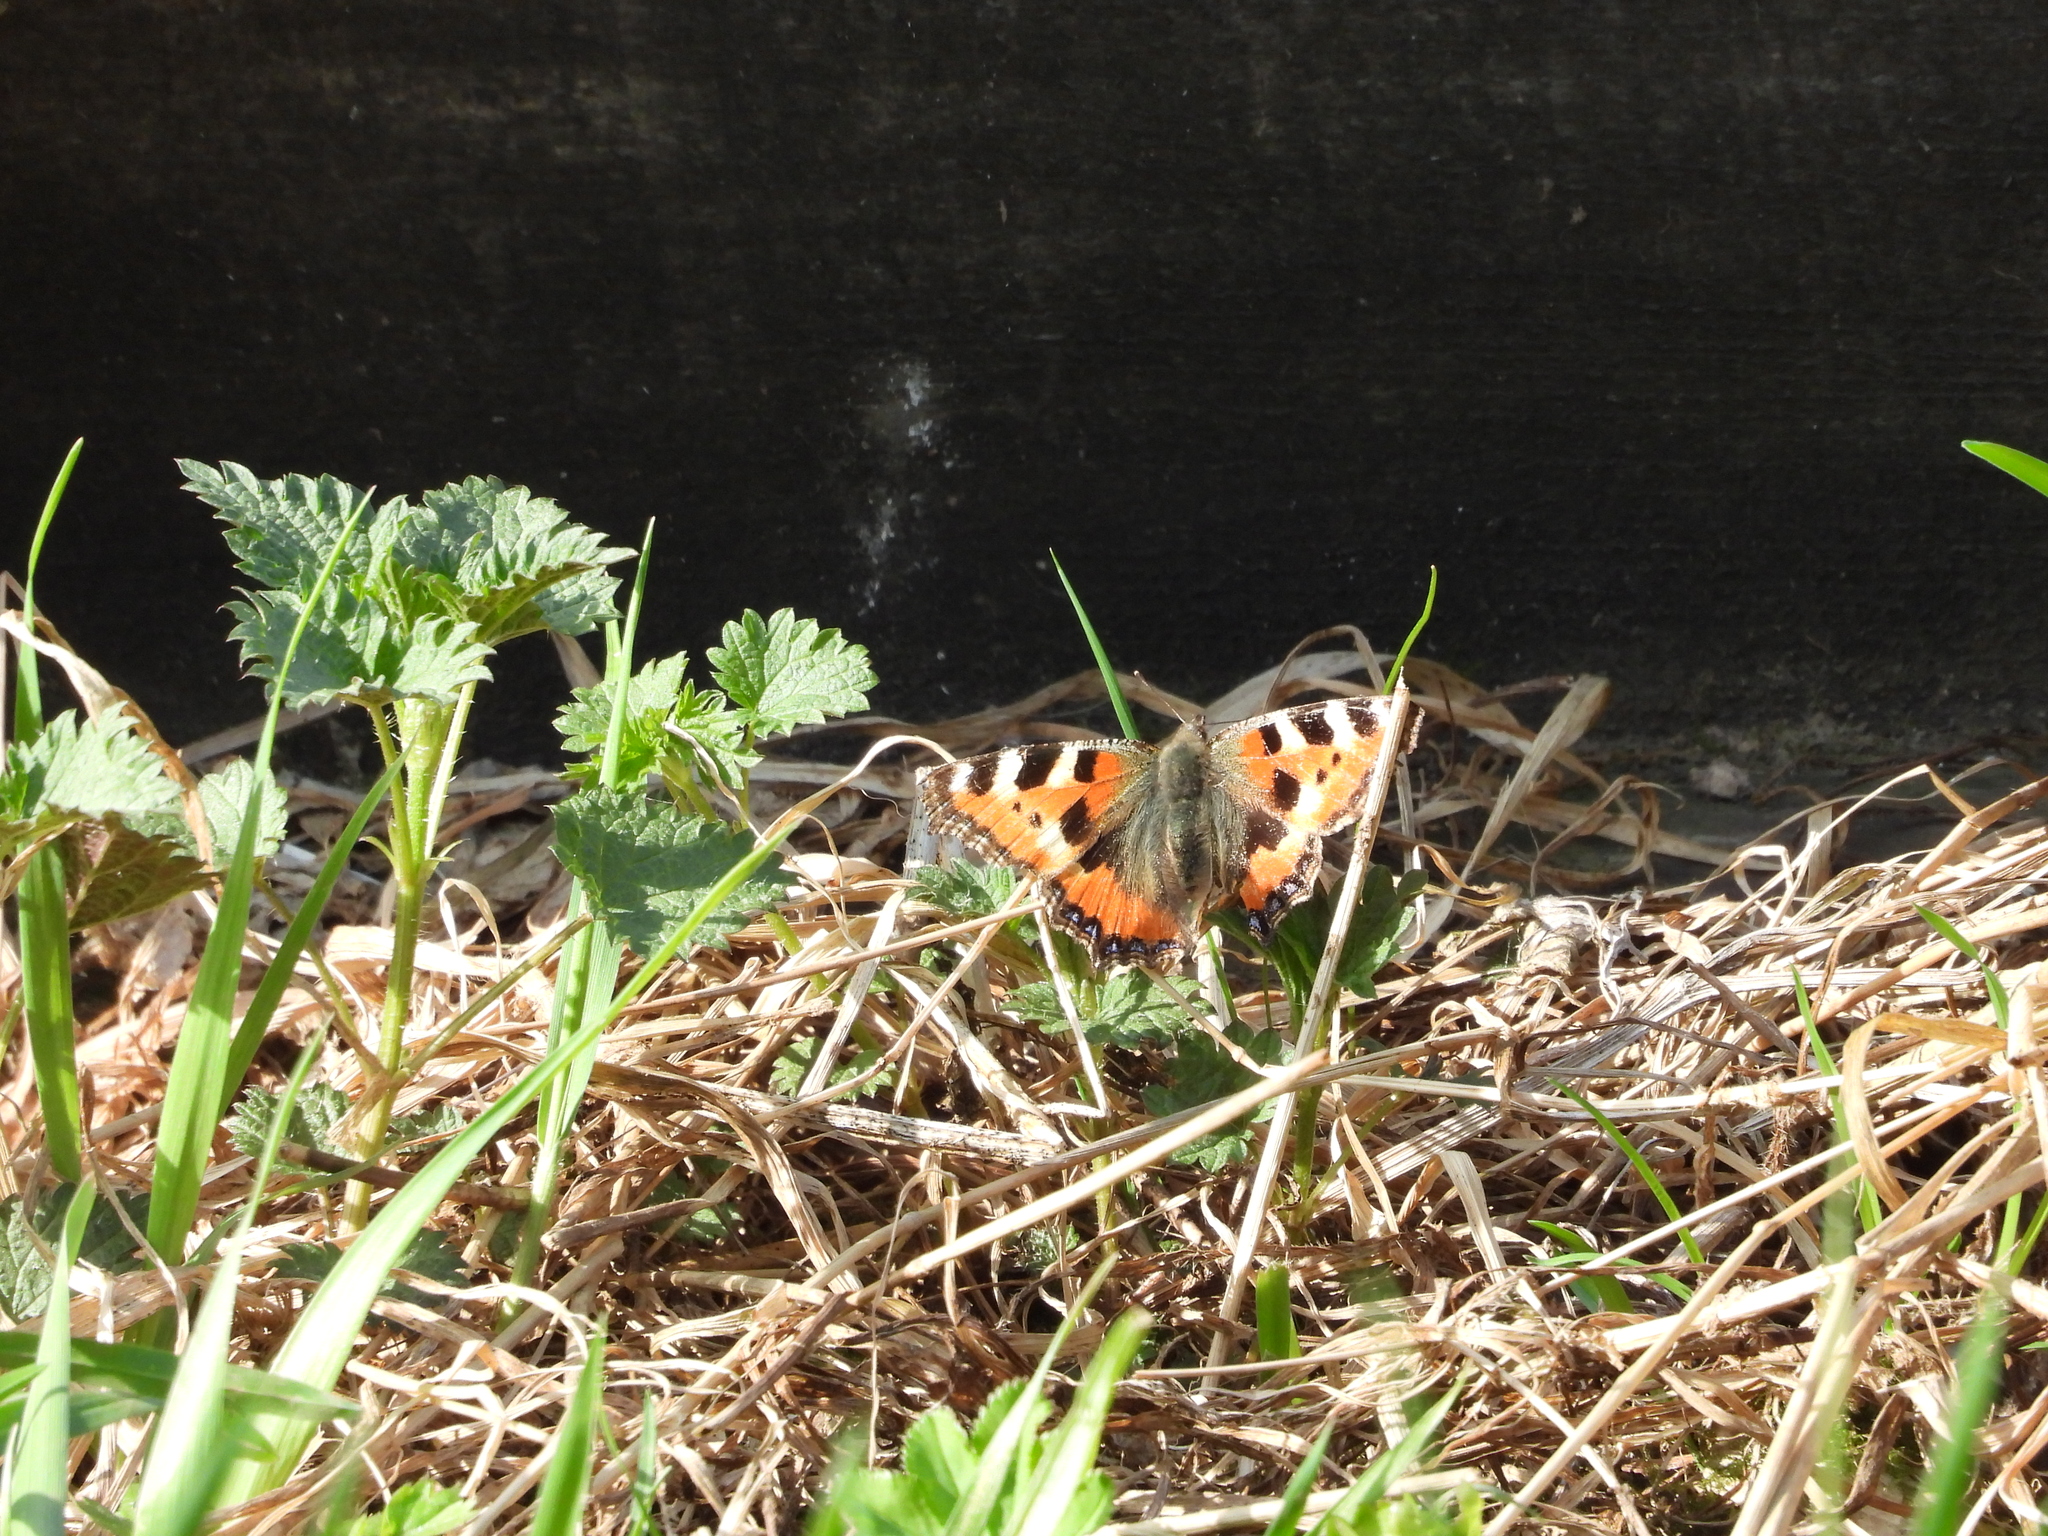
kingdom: Animalia
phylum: Arthropoda
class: Insecta
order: Lepidoptera
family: Nymphalidae
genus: Aglais
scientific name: Aglais urticae
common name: Small tortoiseshell
